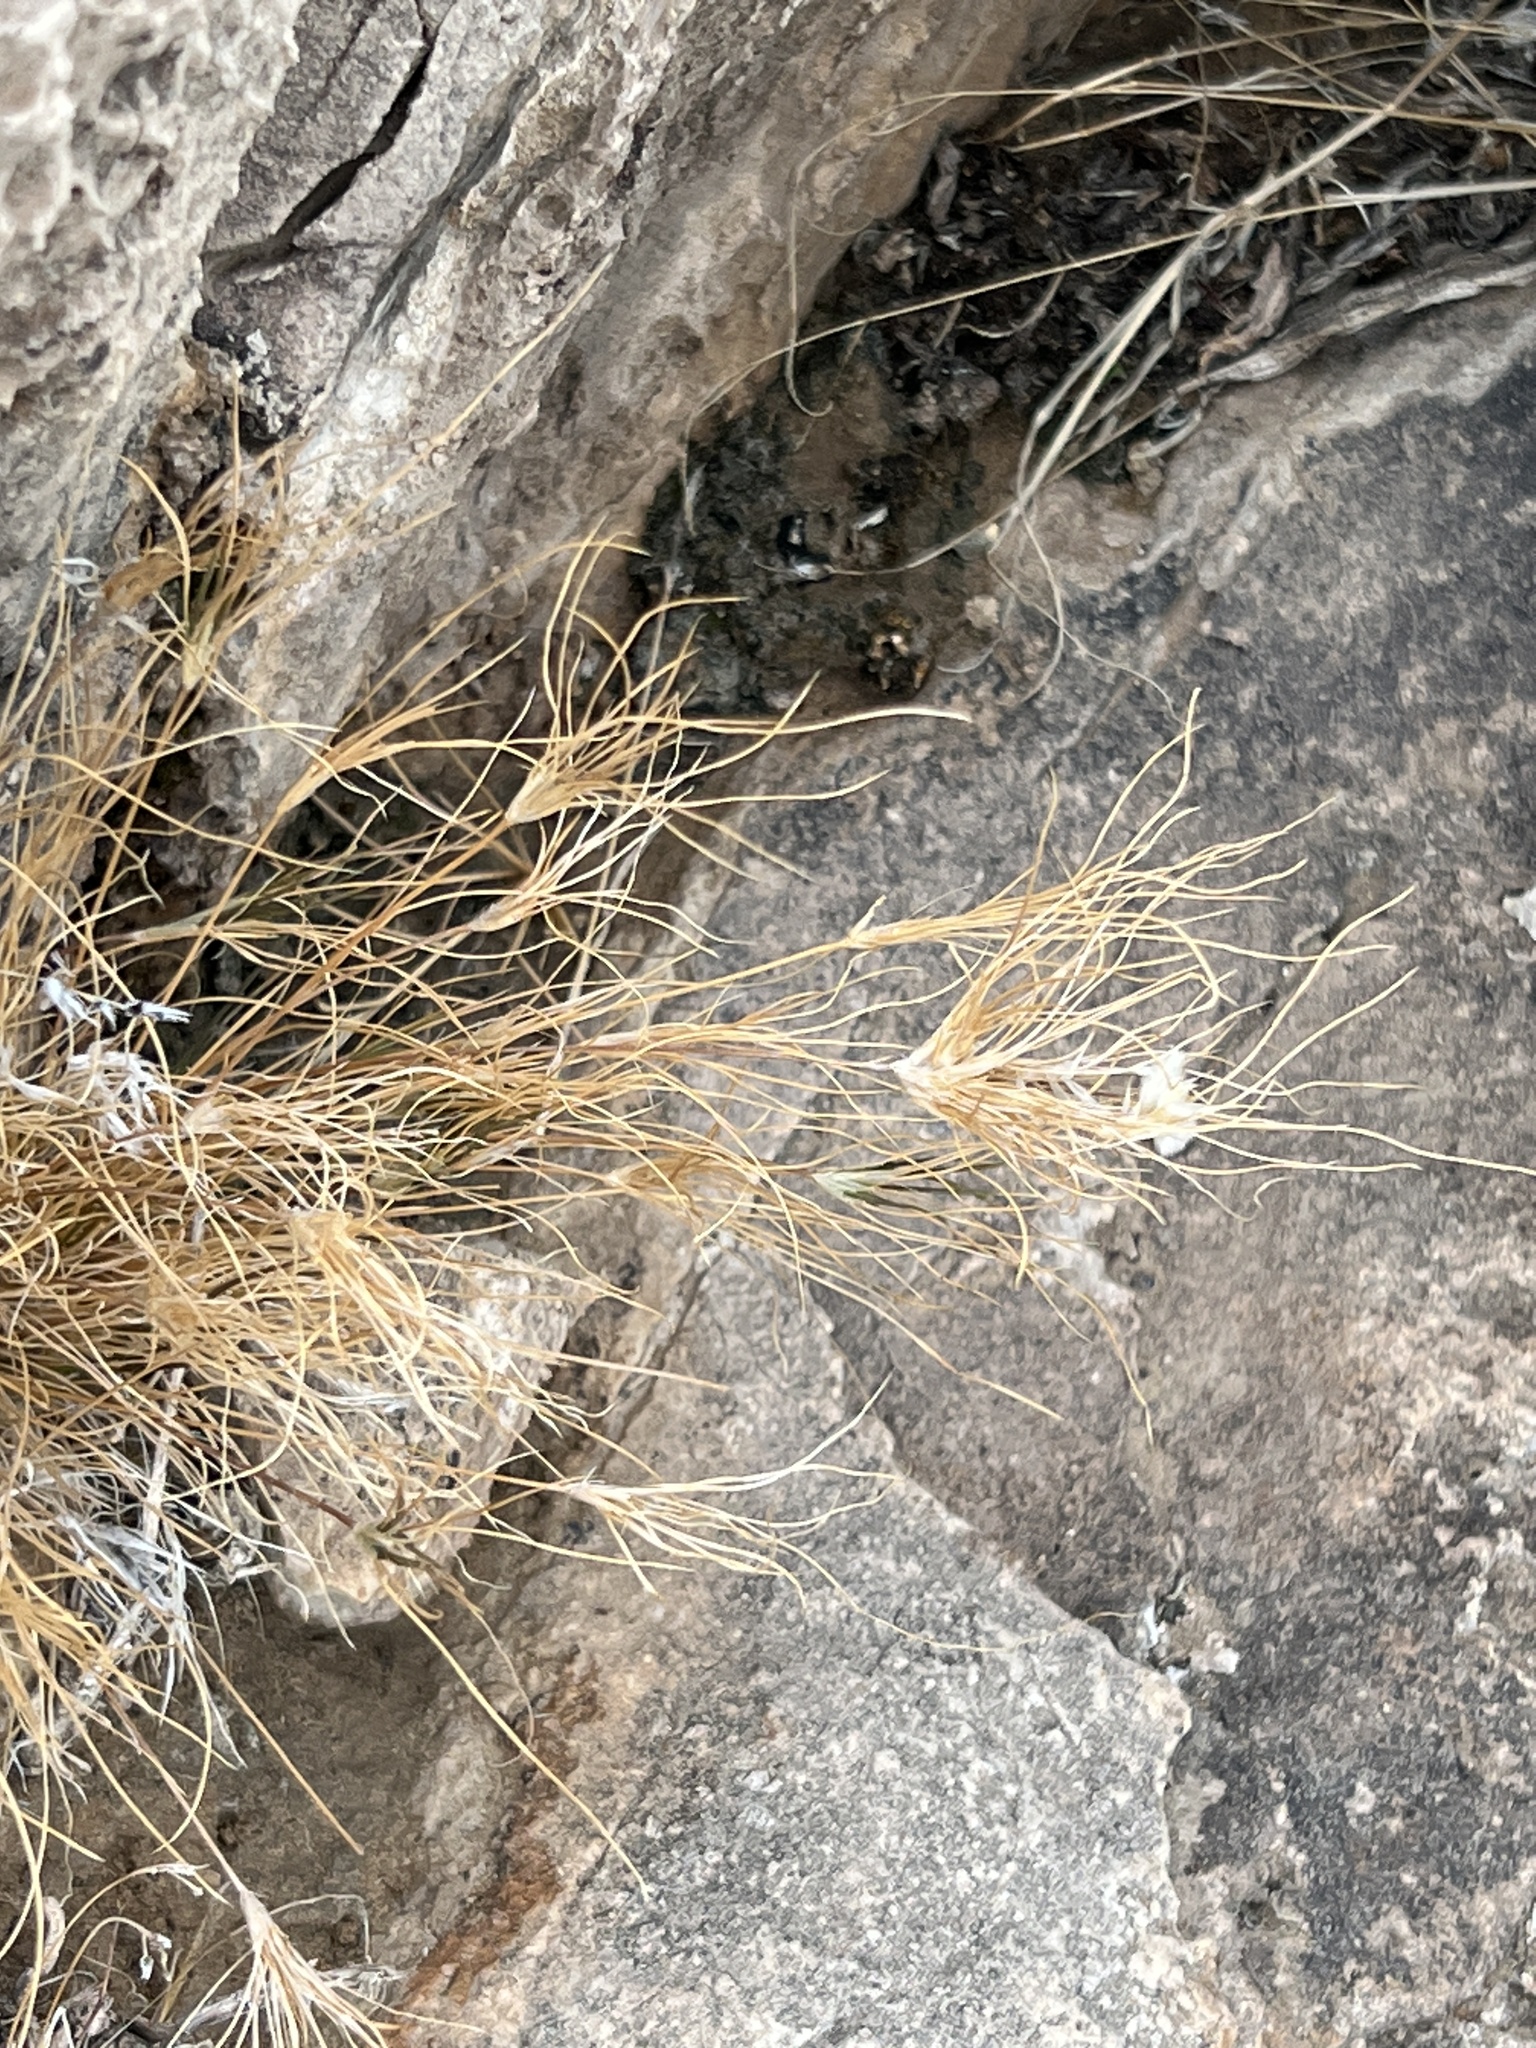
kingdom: Plantae
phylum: Tracheophyta
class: Liliopsida
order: Poales
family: Poaceae
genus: Bromus
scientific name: Bromus rubens
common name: Red brome
